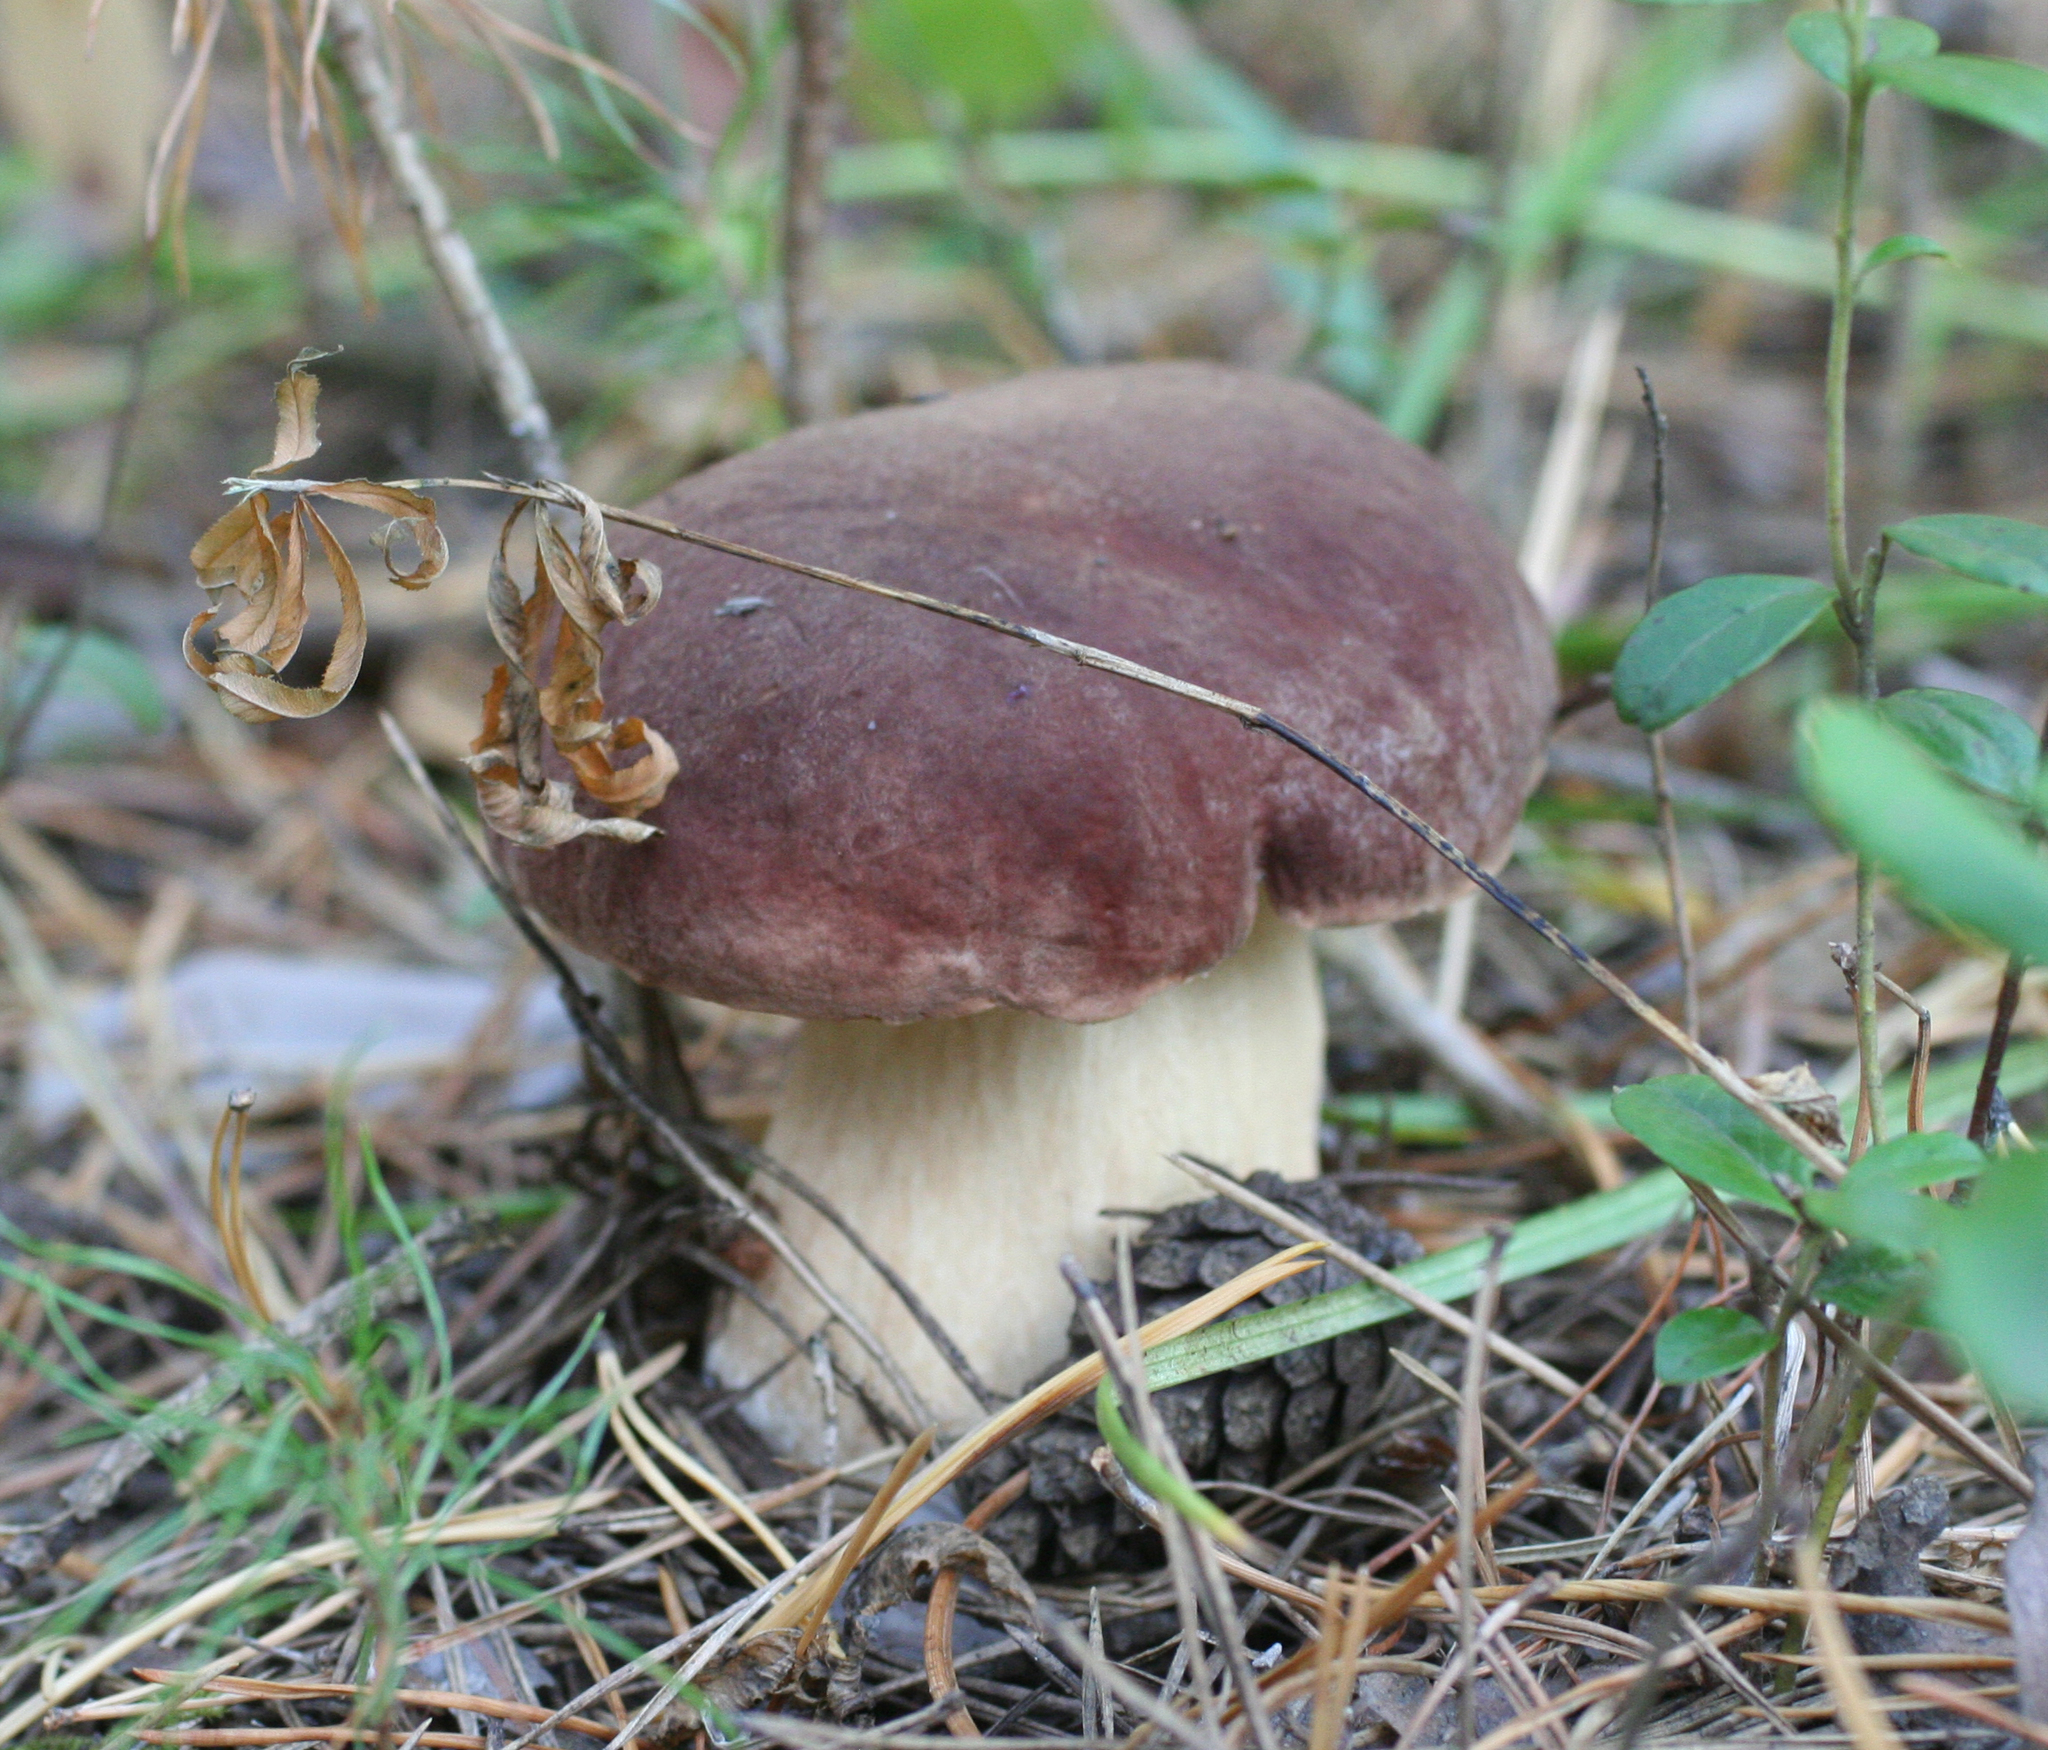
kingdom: Fungi
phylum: Basidiomycota
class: Agaricomycetes
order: Boletales
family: Boletaceae
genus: Boletus
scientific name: Boletus pinophilus
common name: Pine bolete
